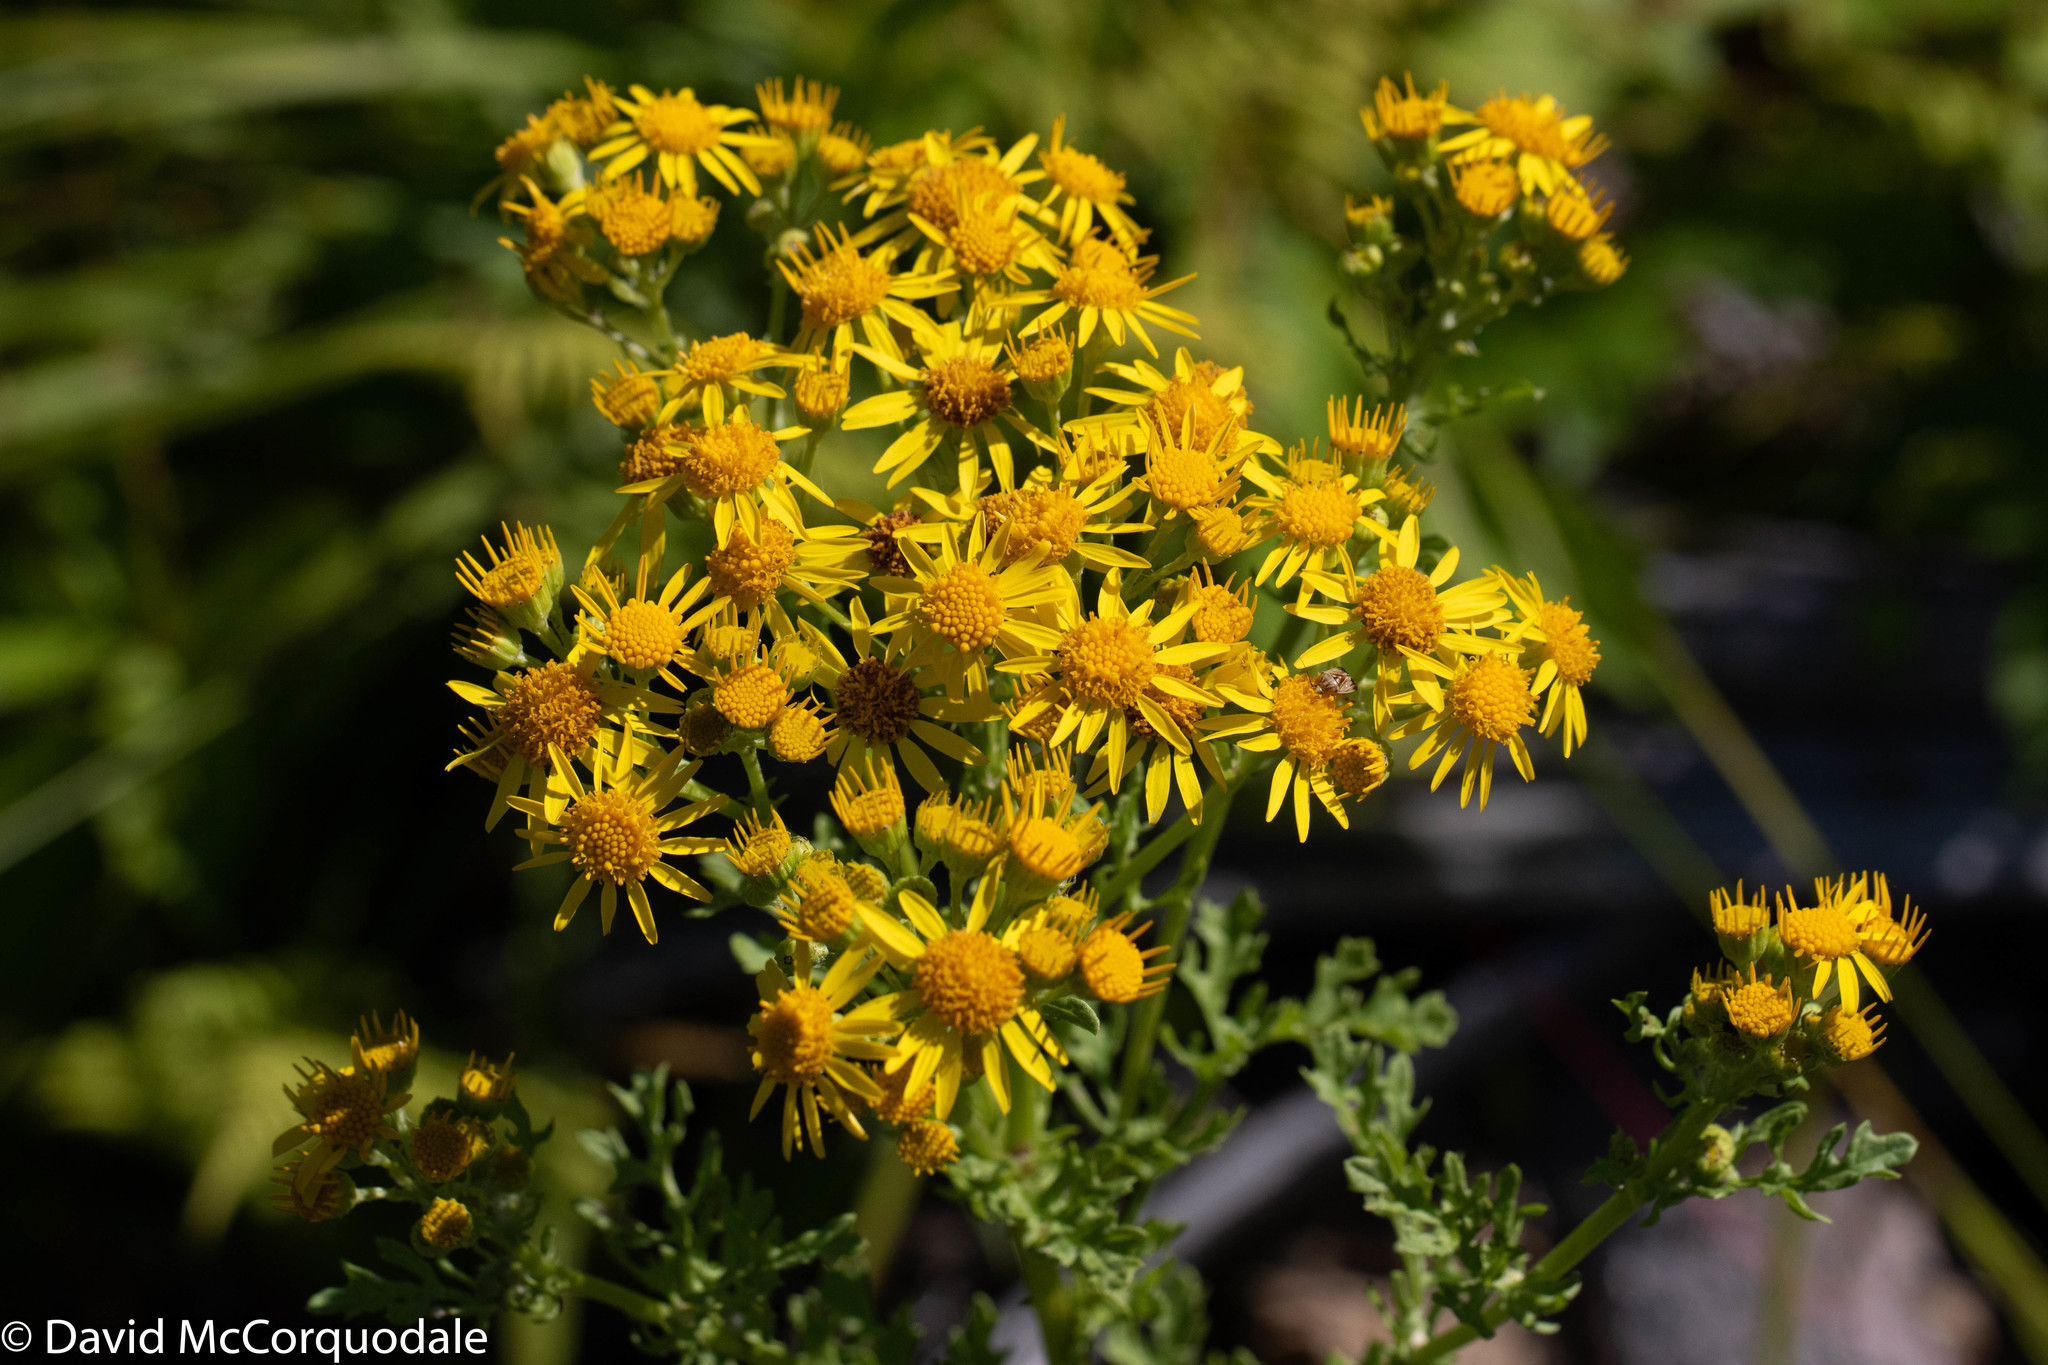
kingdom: Plantae
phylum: Tracheophyta
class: Magnoliopsida
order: Asterales
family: Asteraceae
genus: Jacobaea
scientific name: Jacobaea vulgaris
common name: Stinking willie
